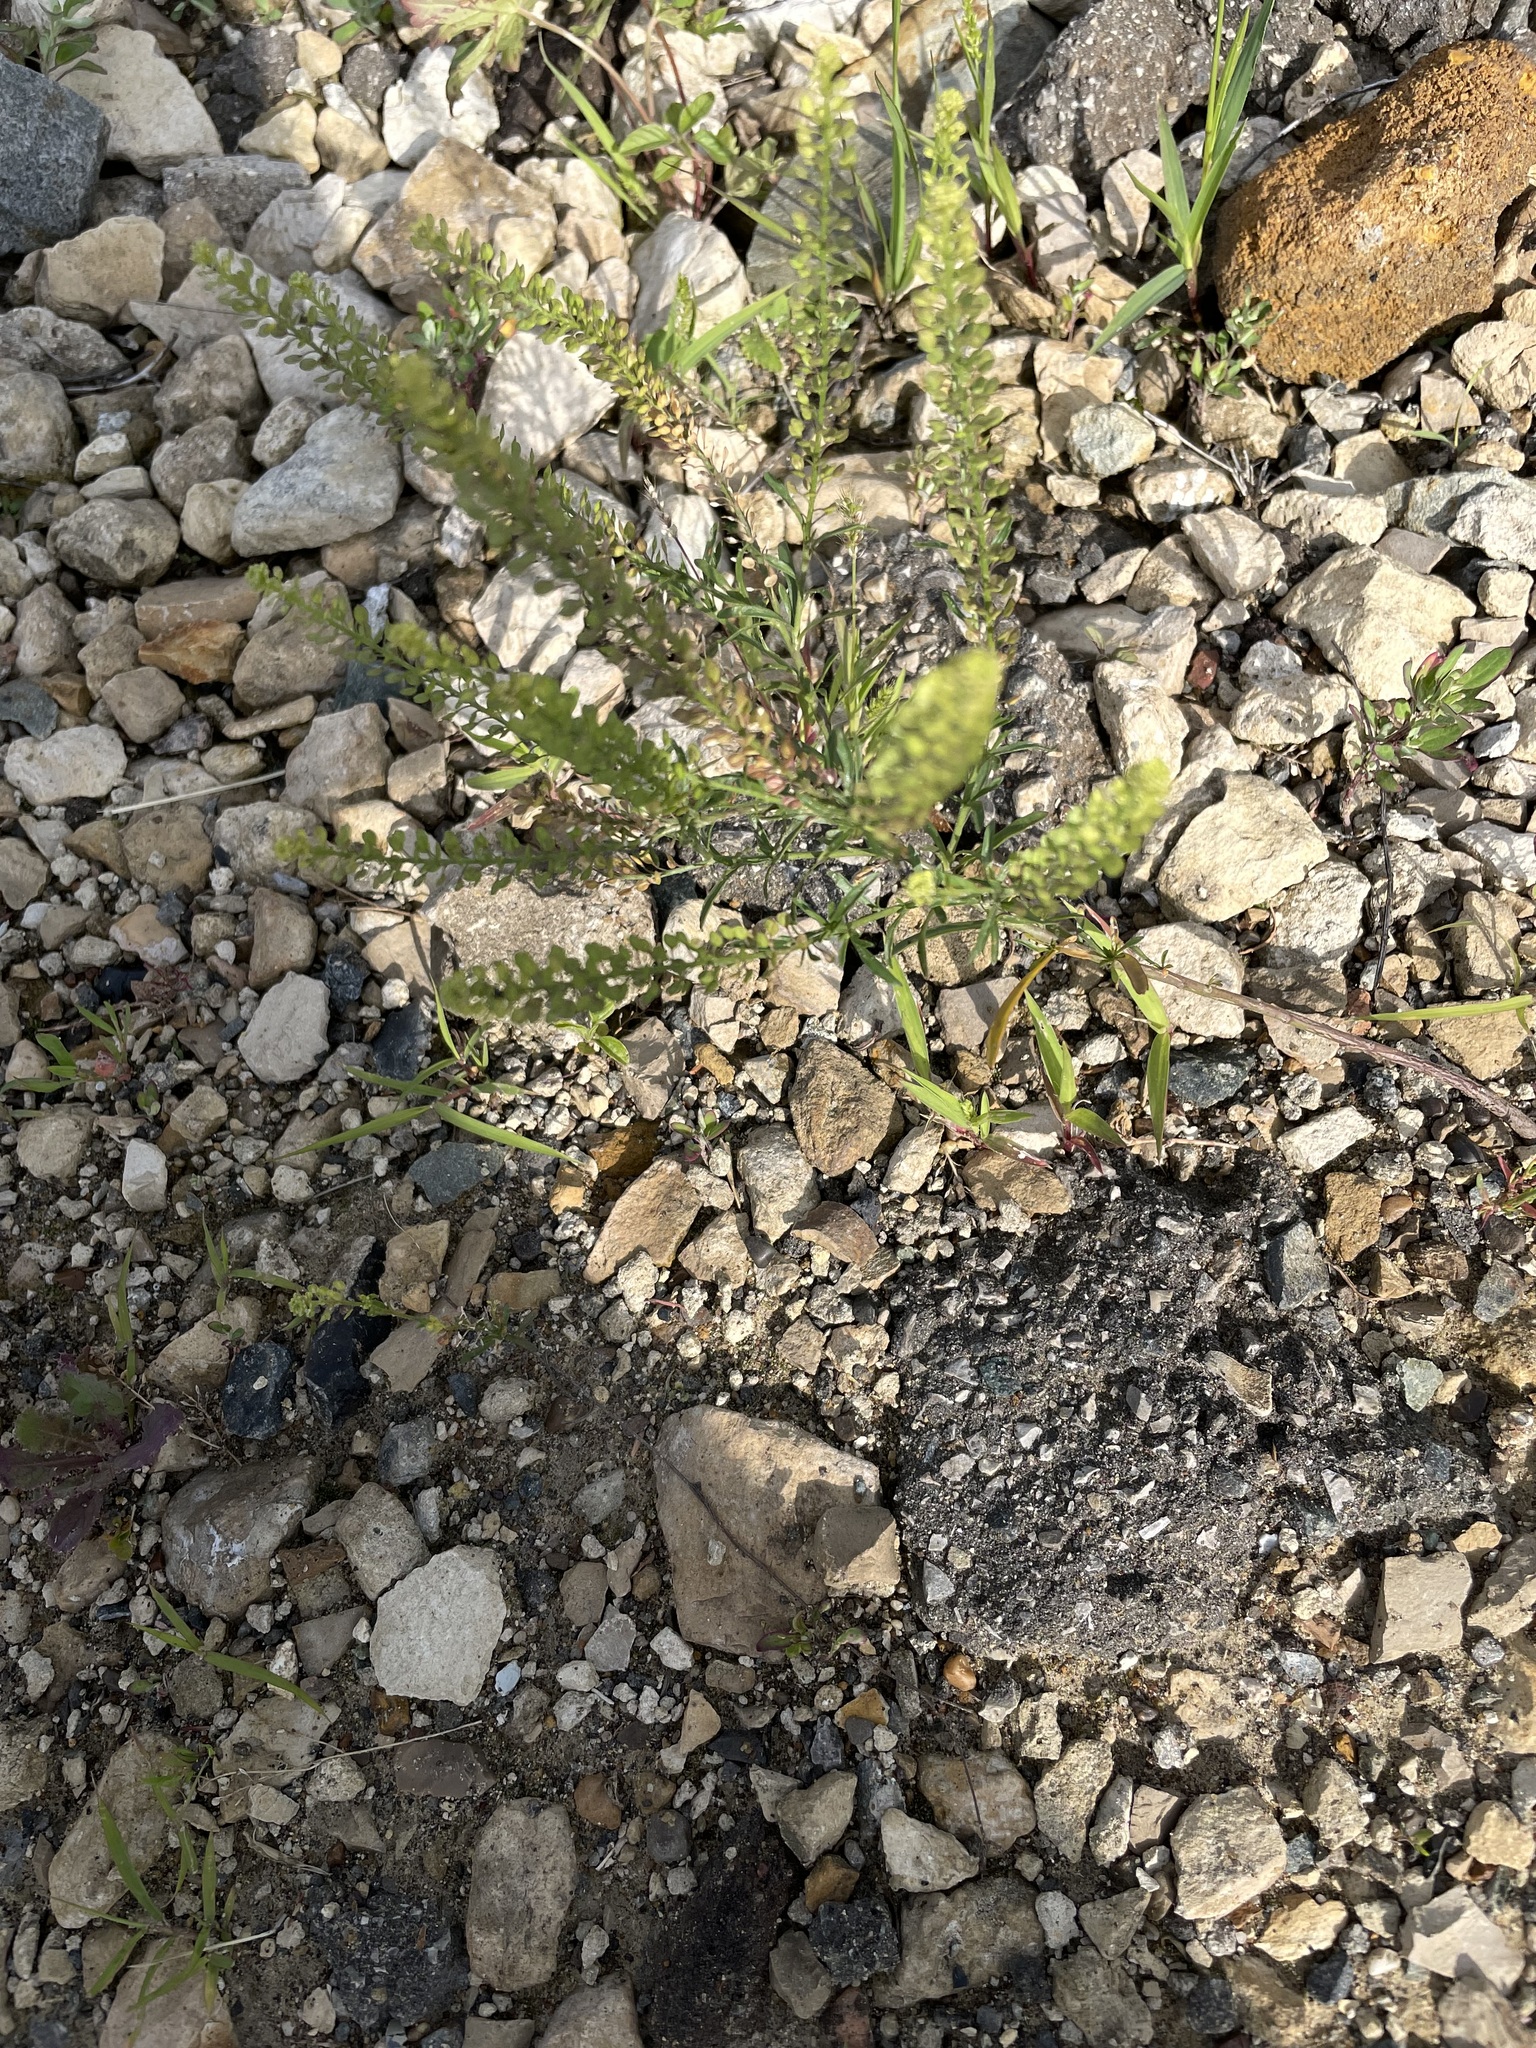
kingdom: Plantae
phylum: Tracheophyta
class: Magnoliopsida
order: Brassicales
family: Brassicaceae
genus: Lepidium
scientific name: Lepidium densiflorum
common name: Miner's pepperwort
